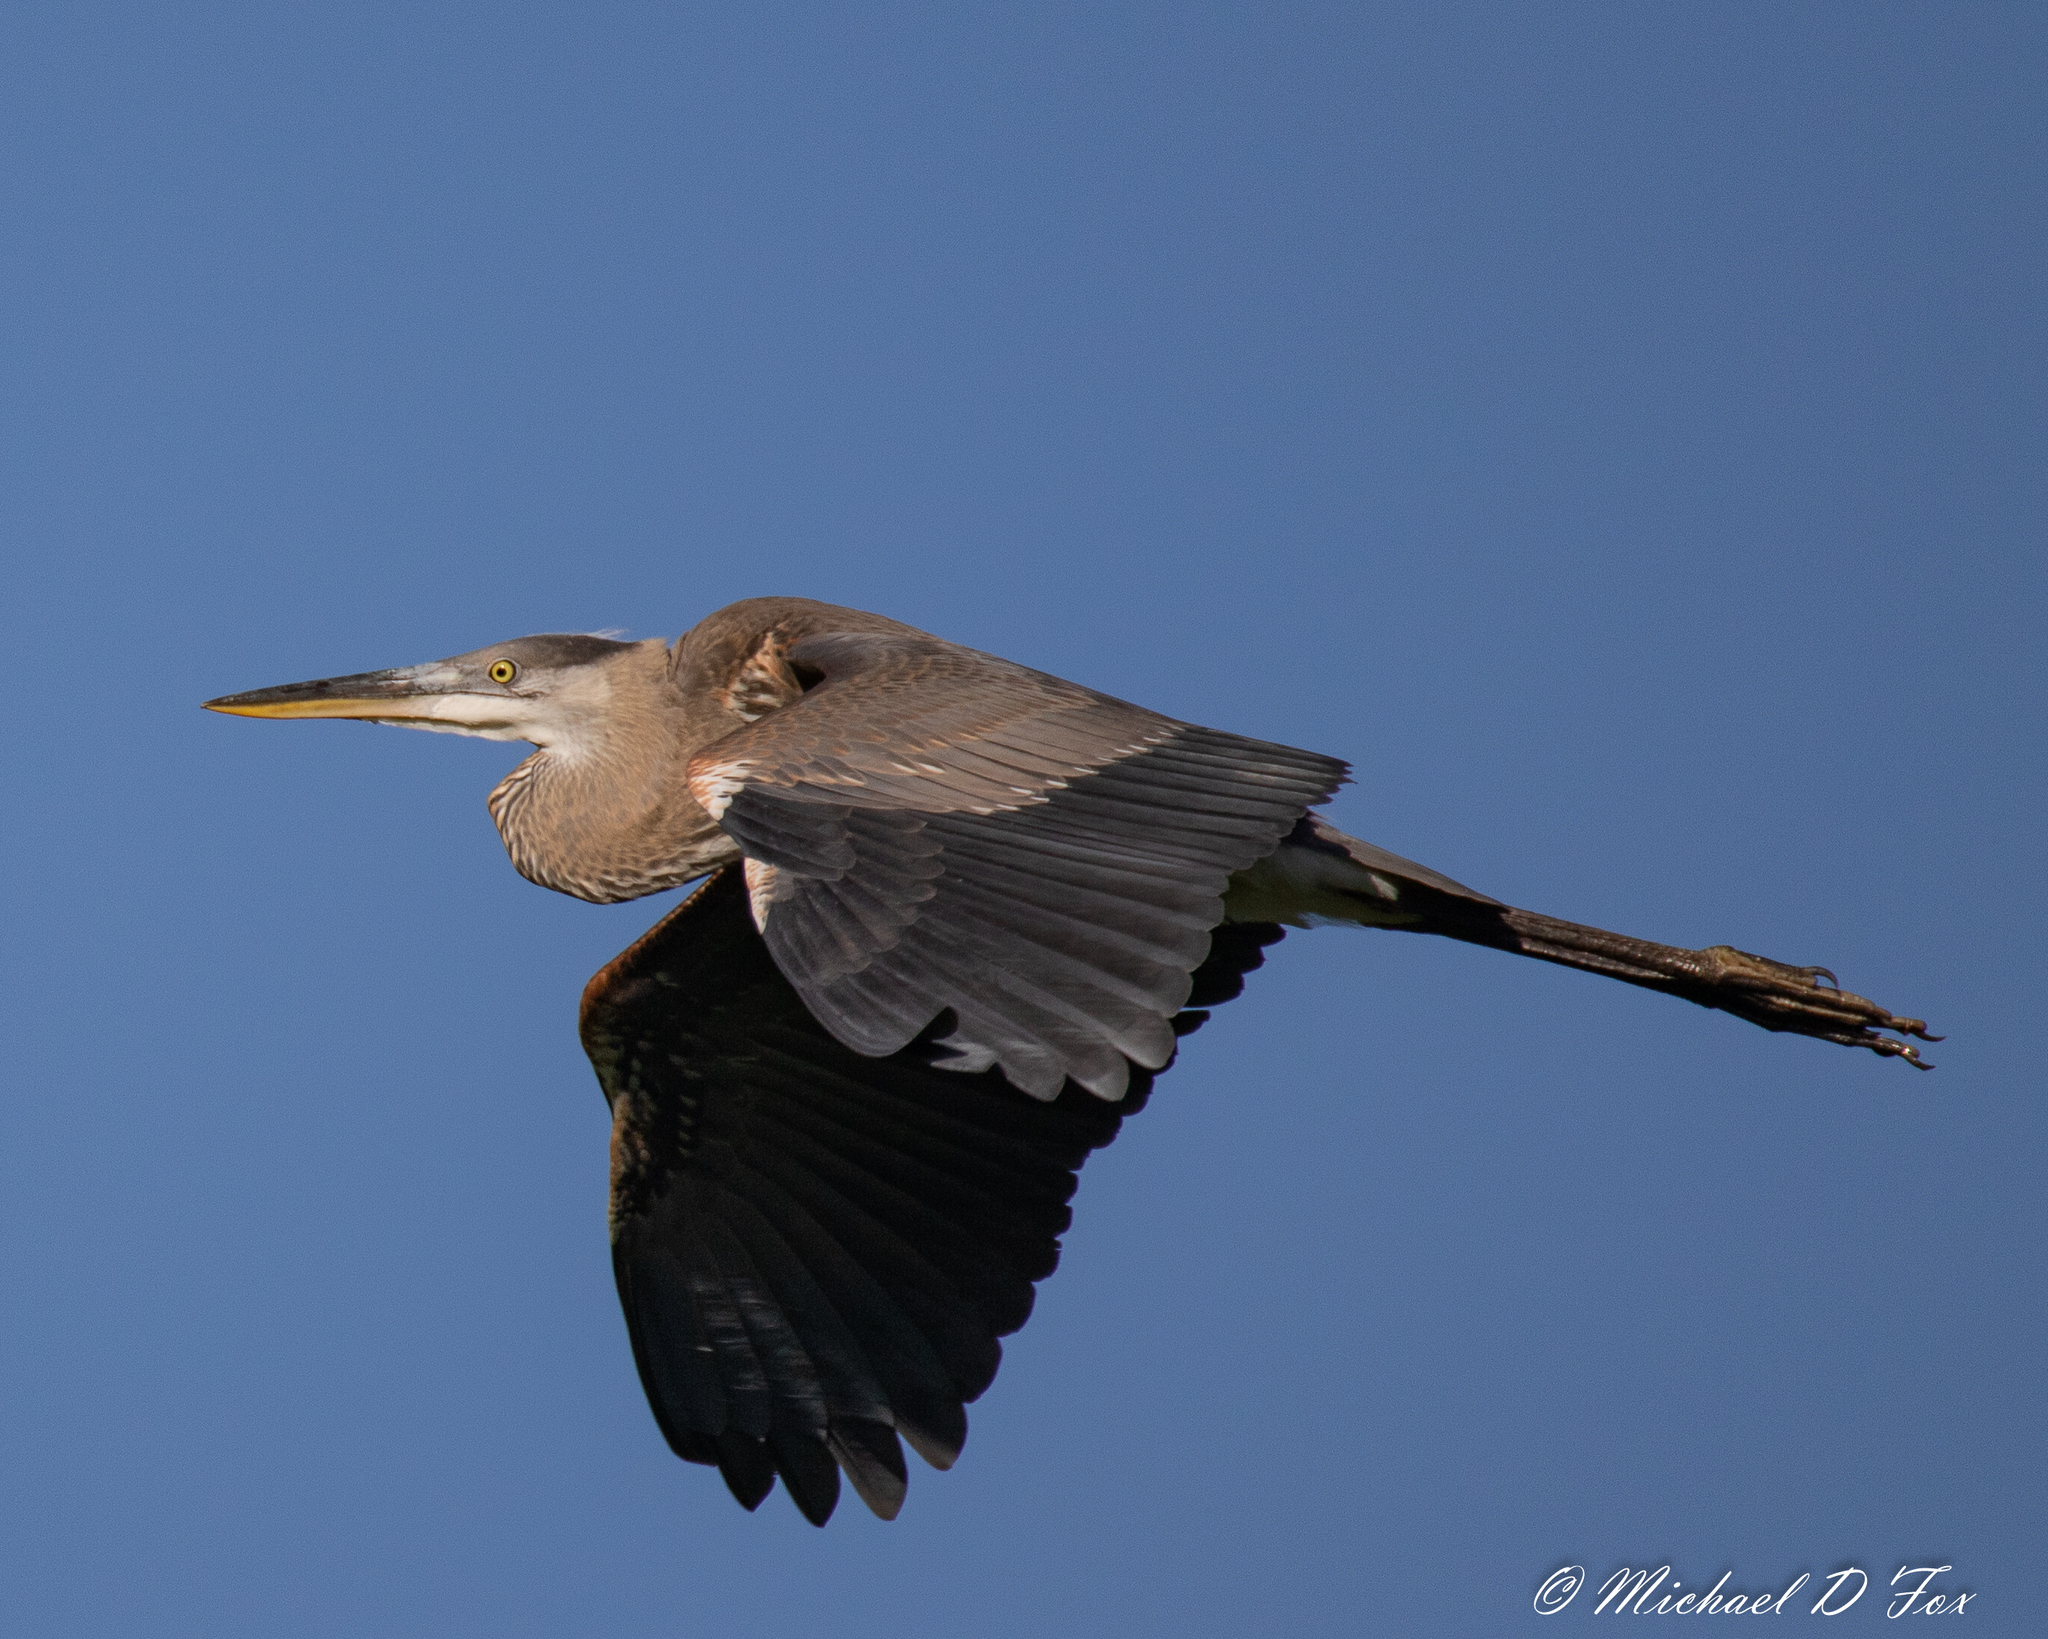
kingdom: Animalia
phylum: Chordata
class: Aves
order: Pelecaniformes
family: Ardeidae
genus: Ardea
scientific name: Ardea herodias
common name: Great blue heron
